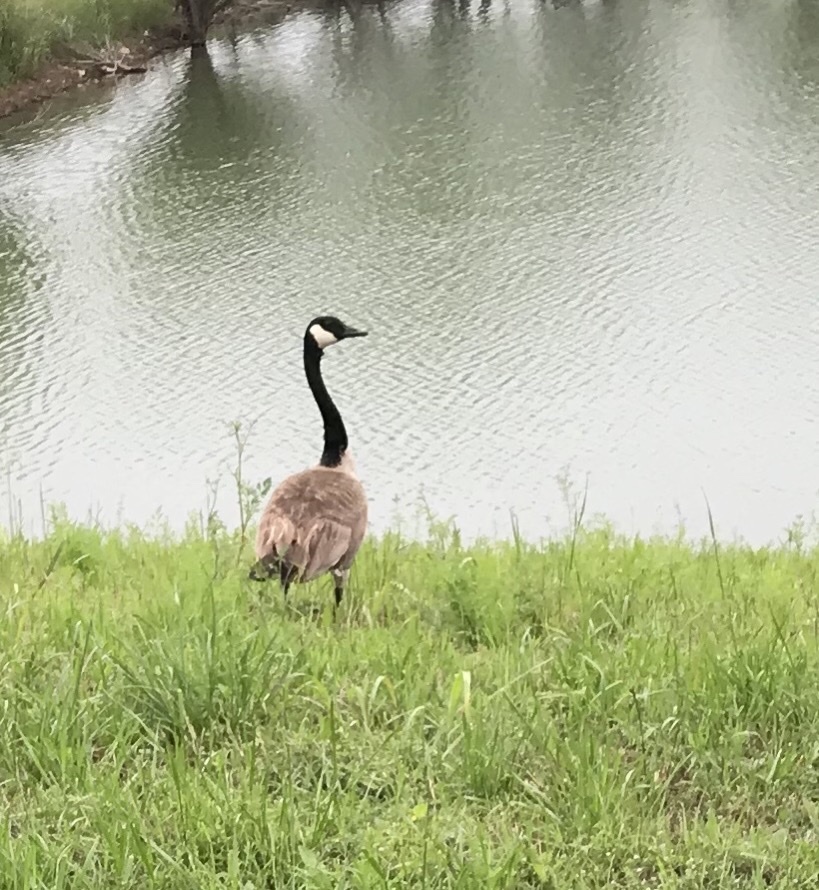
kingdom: Animalia
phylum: Chordata
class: Aves
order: Anseriformes
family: Anatidae
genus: Branta
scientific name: Branta canadensis
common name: Canada goose
